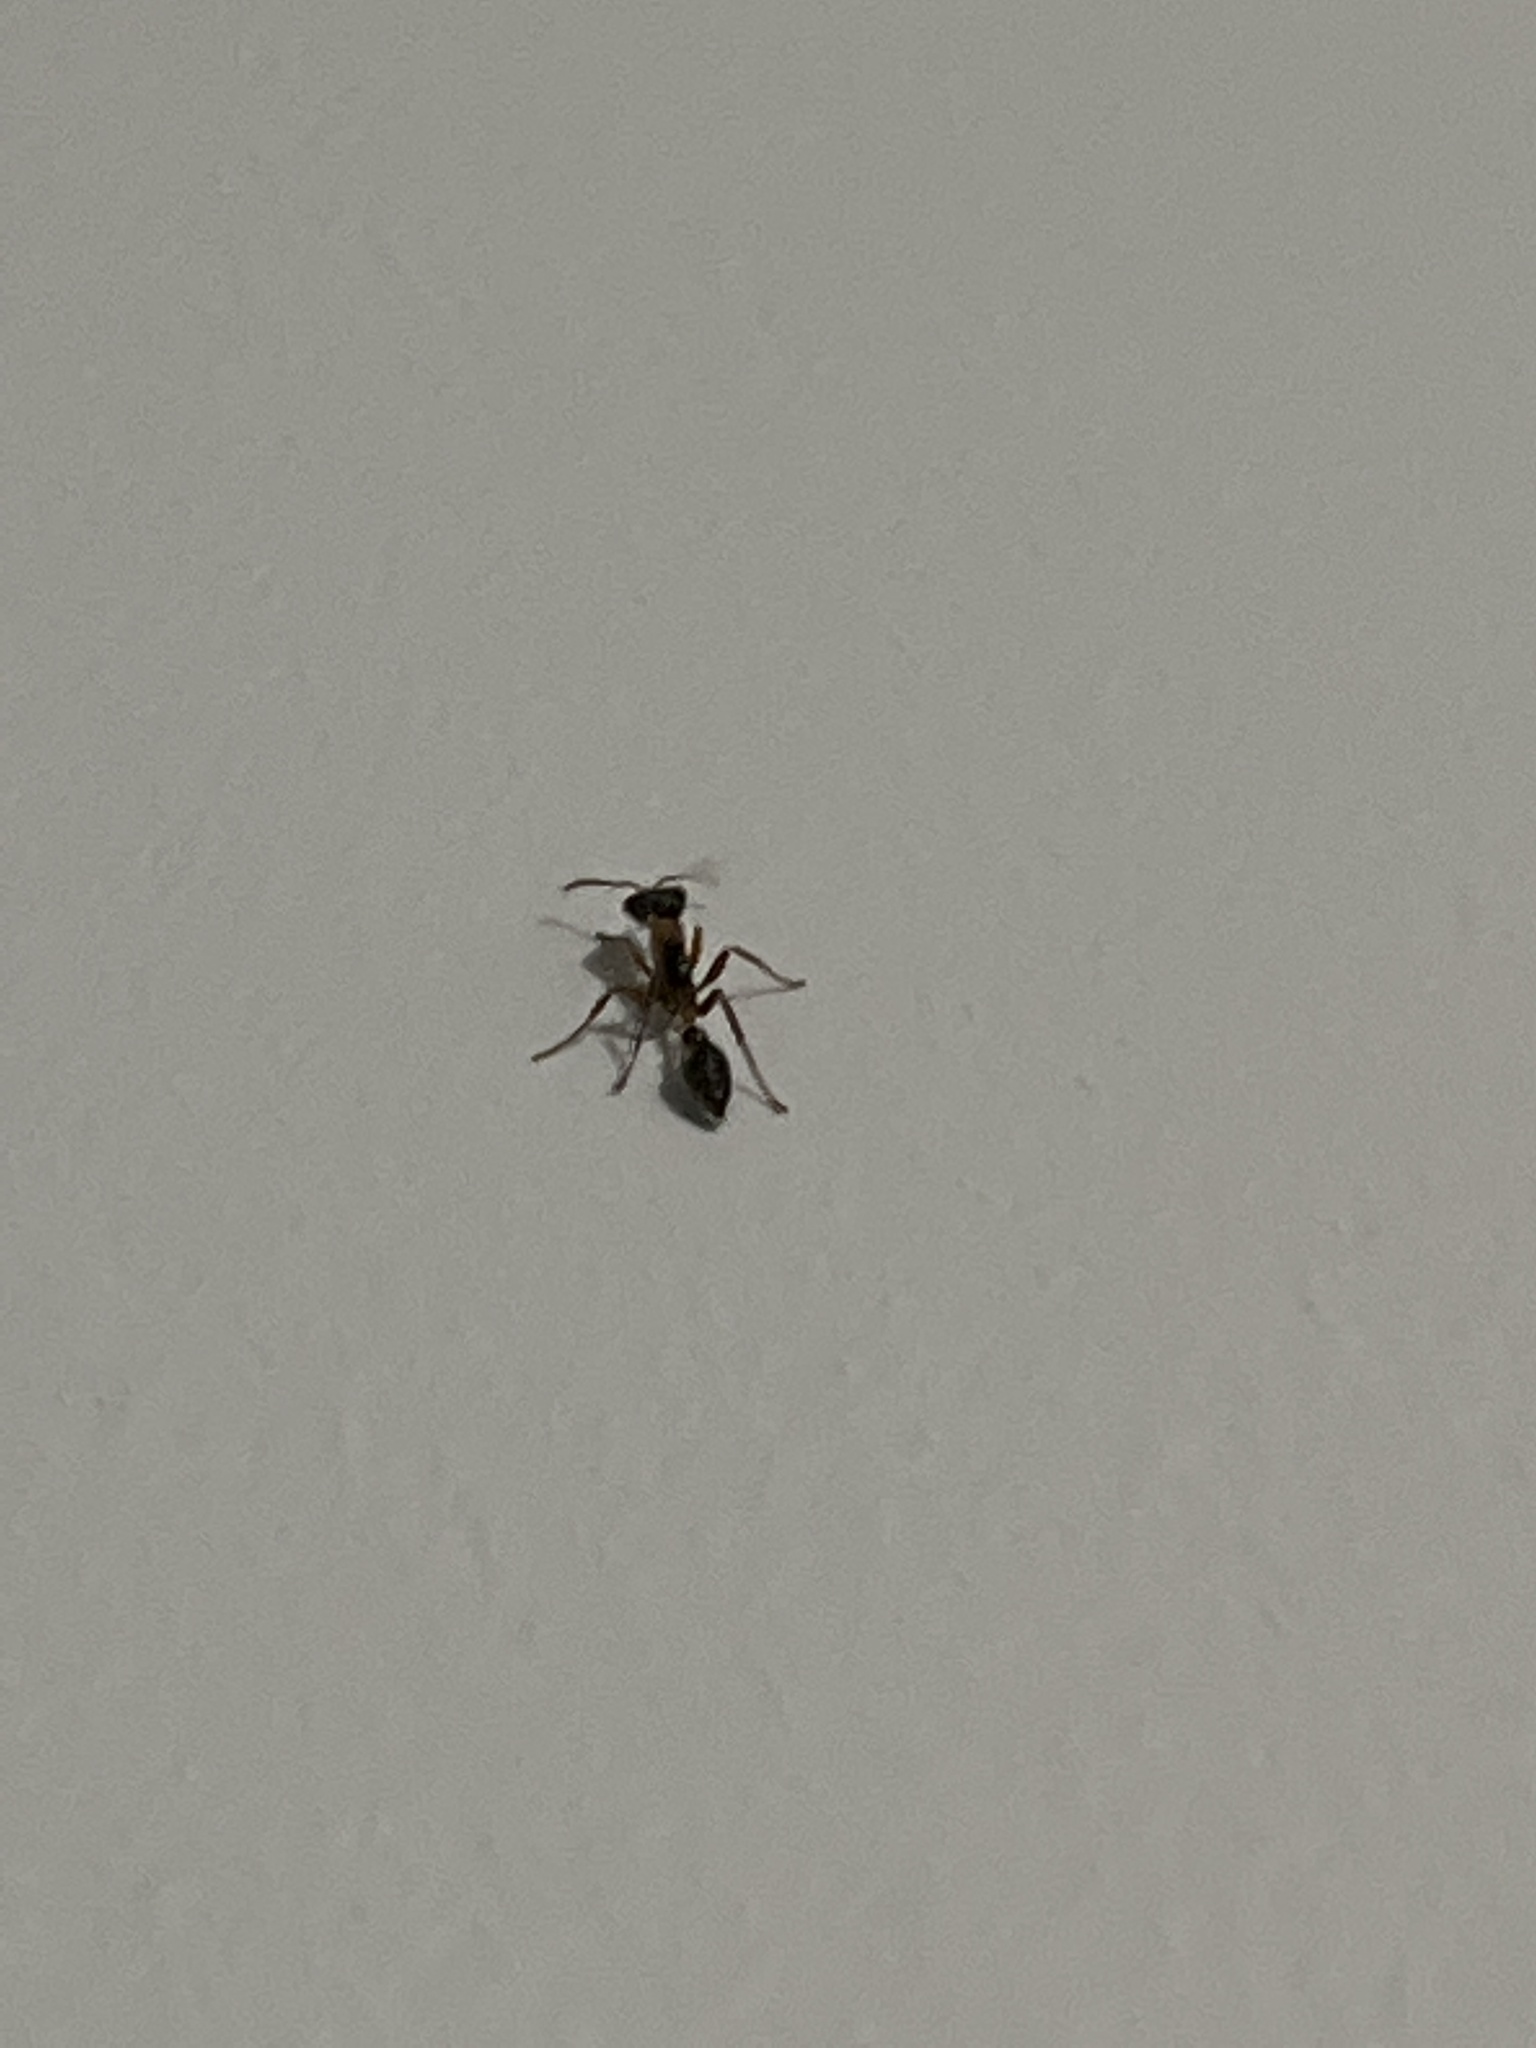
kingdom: Animalia
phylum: Arthropoda
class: Insecta
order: Hymenoptera
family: Formicidae
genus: Pseudomyrmex
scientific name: Pseudomyrmex gracilis
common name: Graceful twig ant
